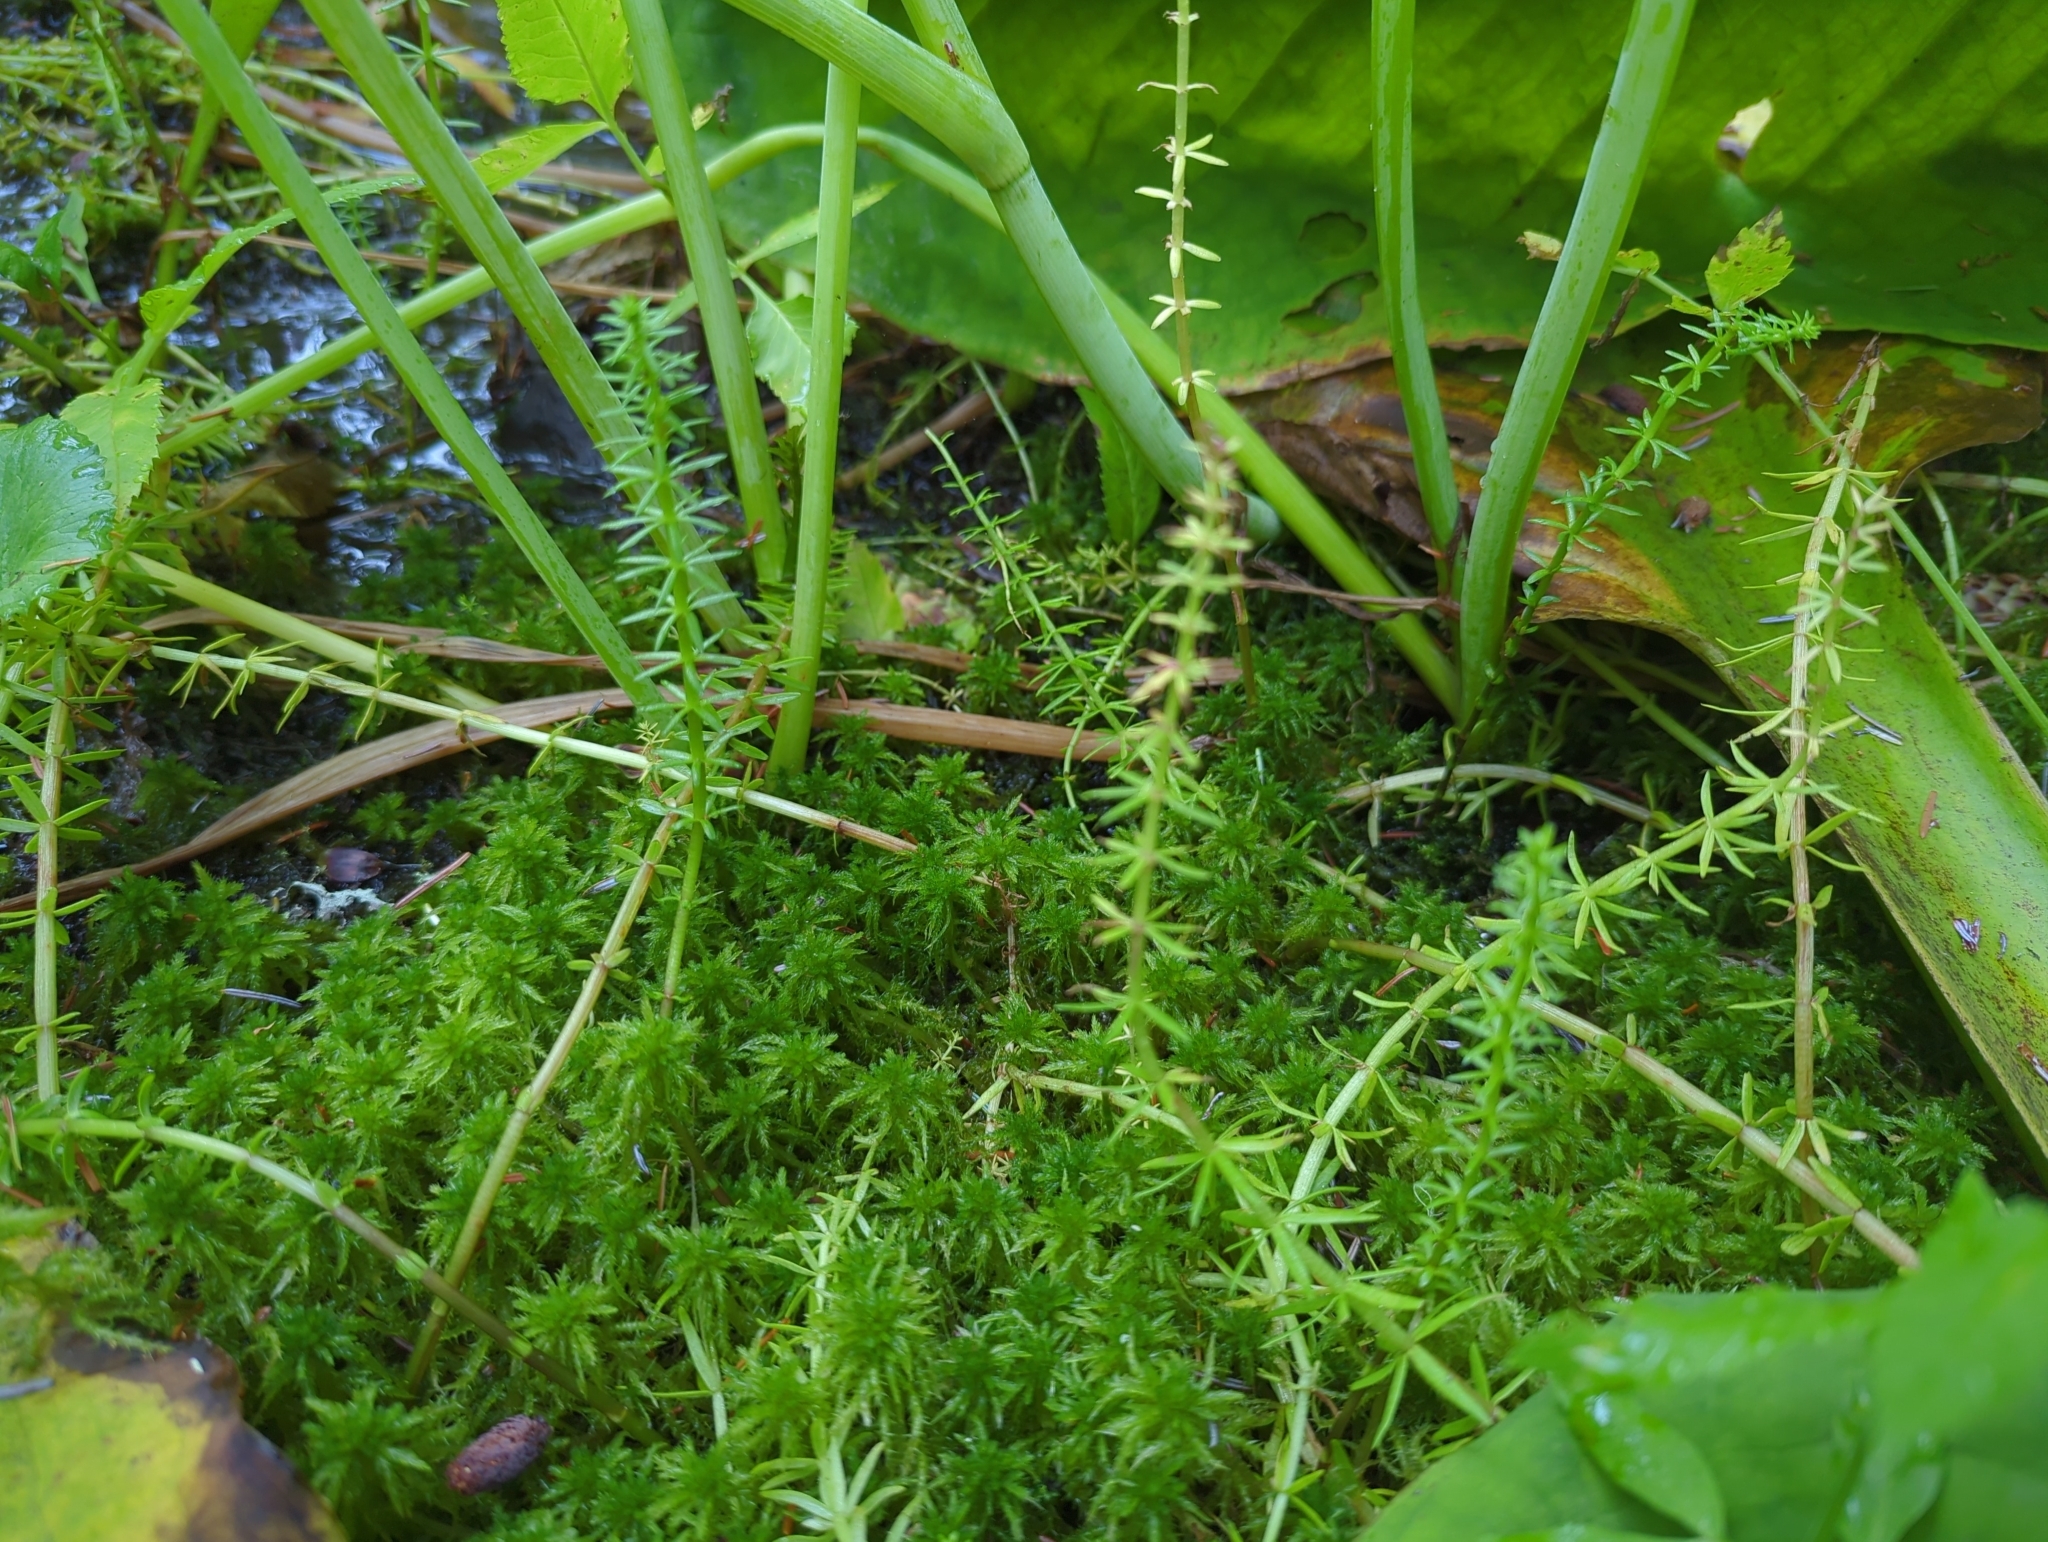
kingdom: Plantae
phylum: Tracheophyta
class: Magnoliopsida
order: Lamiales
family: Plantaginaceae
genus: Hippuris
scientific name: Hippuris montana
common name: Mountain mare's-tail
